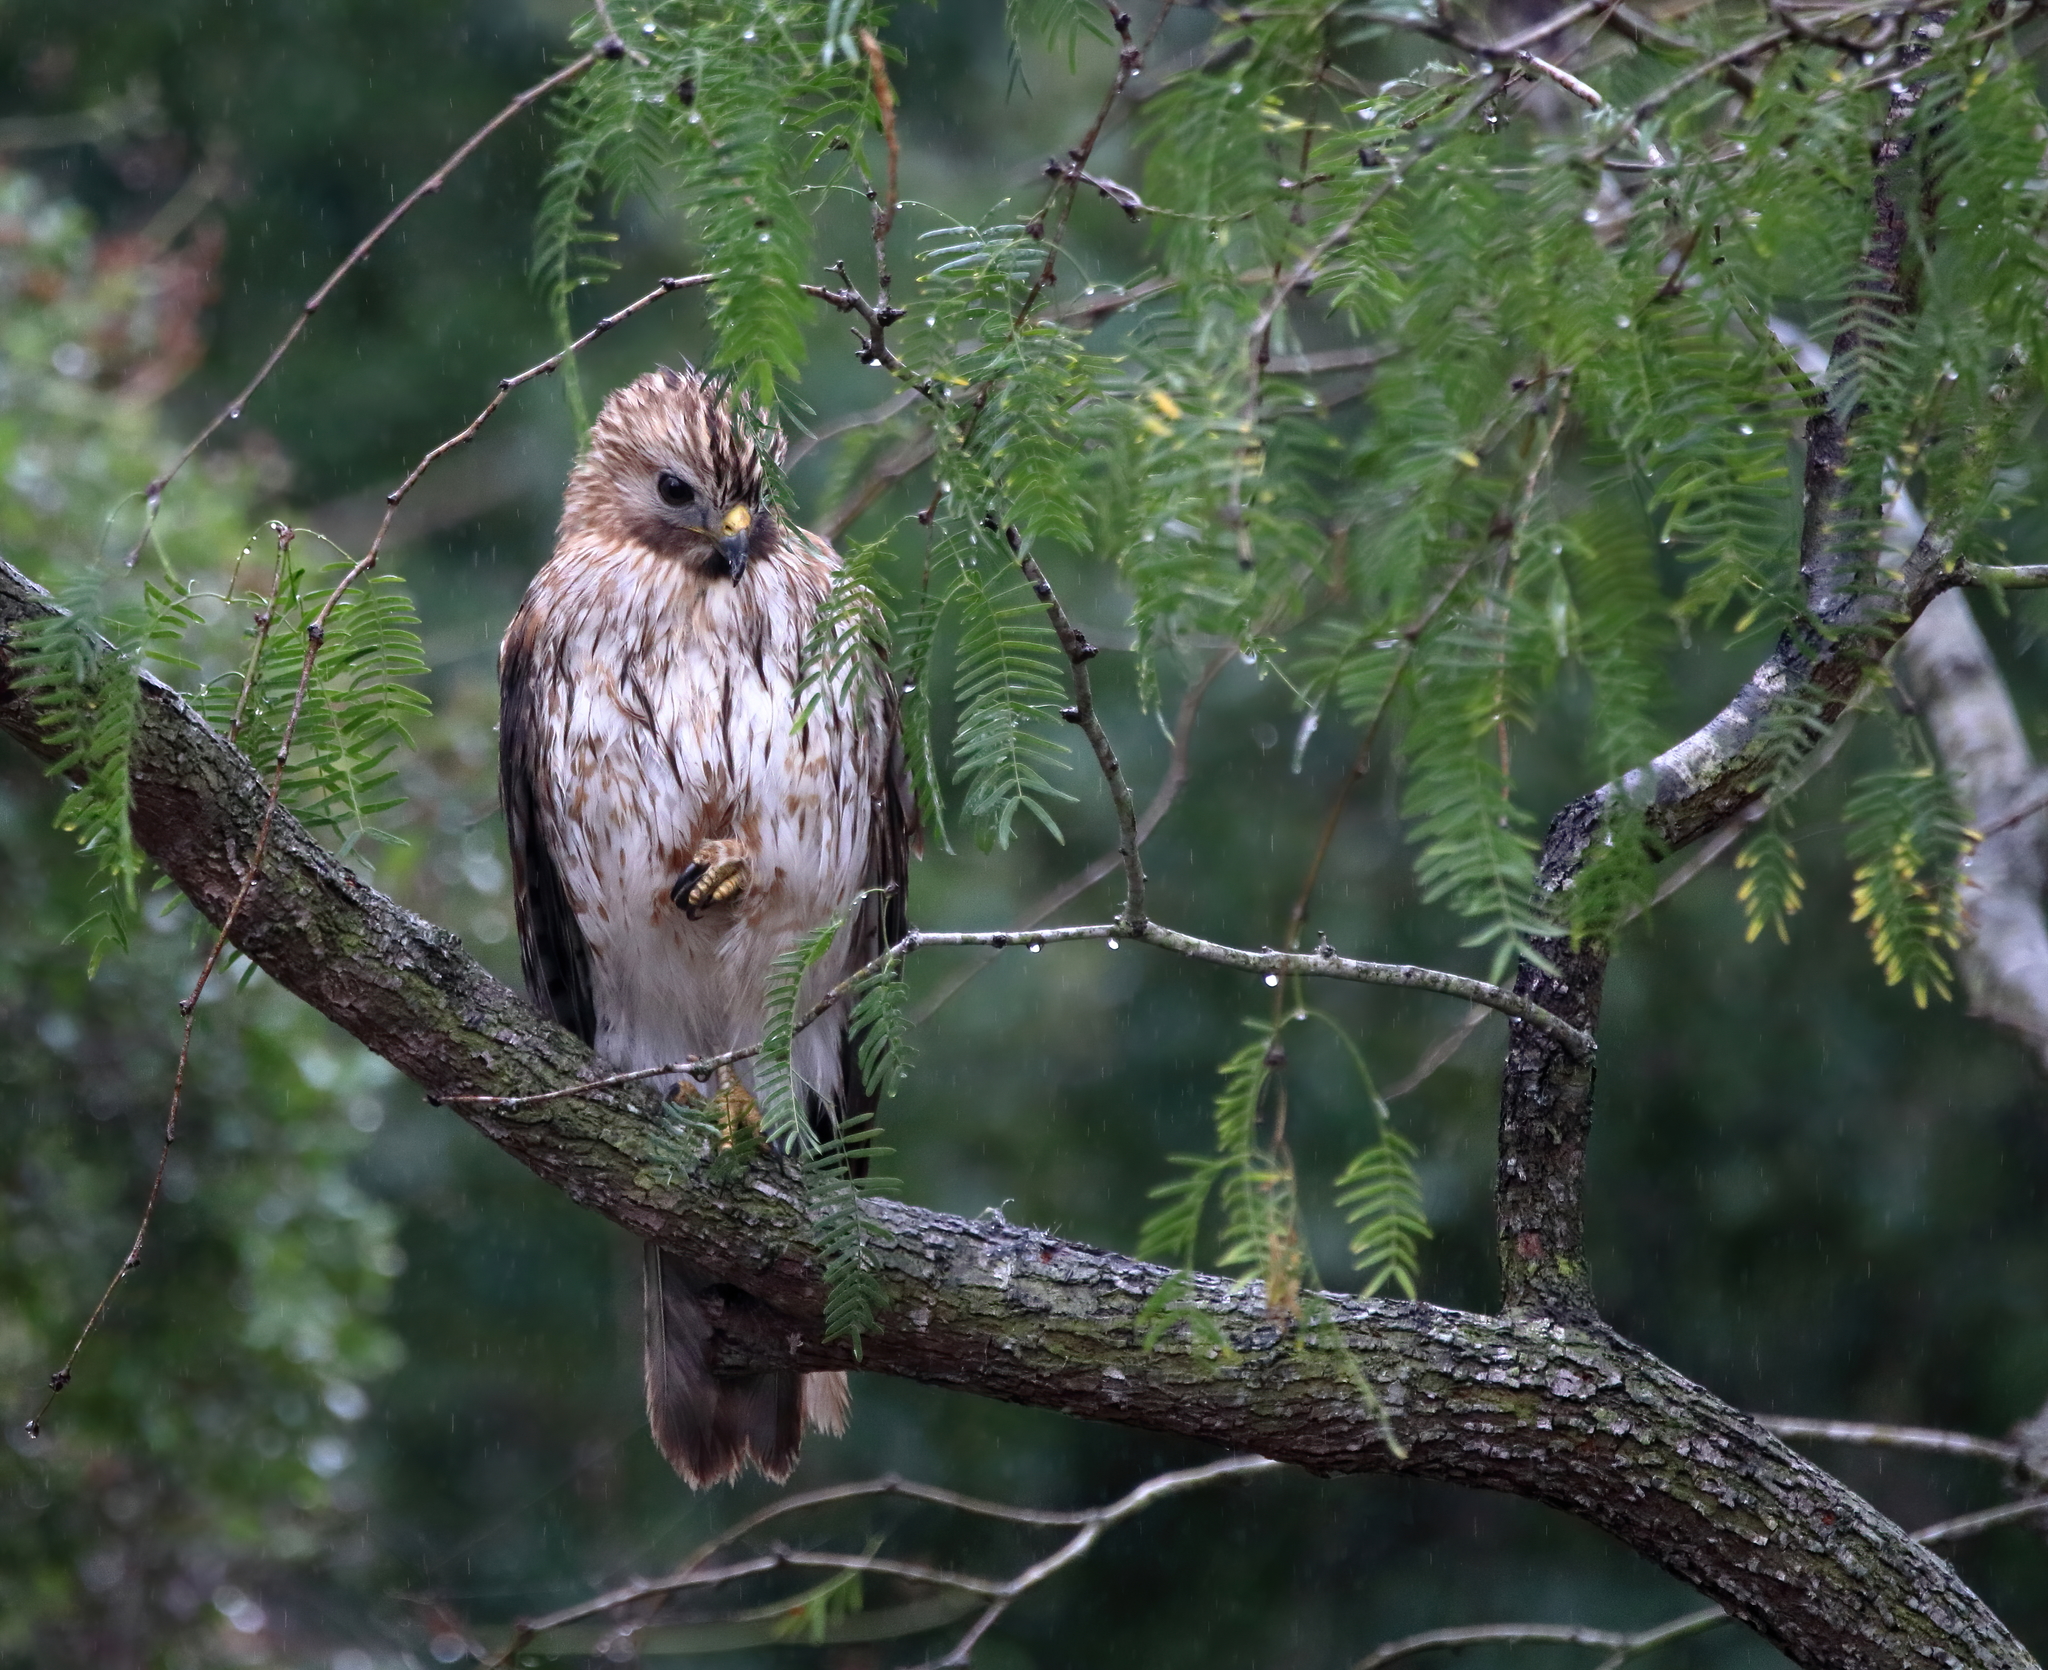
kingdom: Animalia
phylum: Chordata
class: Aves
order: Accipitriformes
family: Accipitridae
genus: Buteo
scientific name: Buteo lineatus
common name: Red-shouldered hawk
